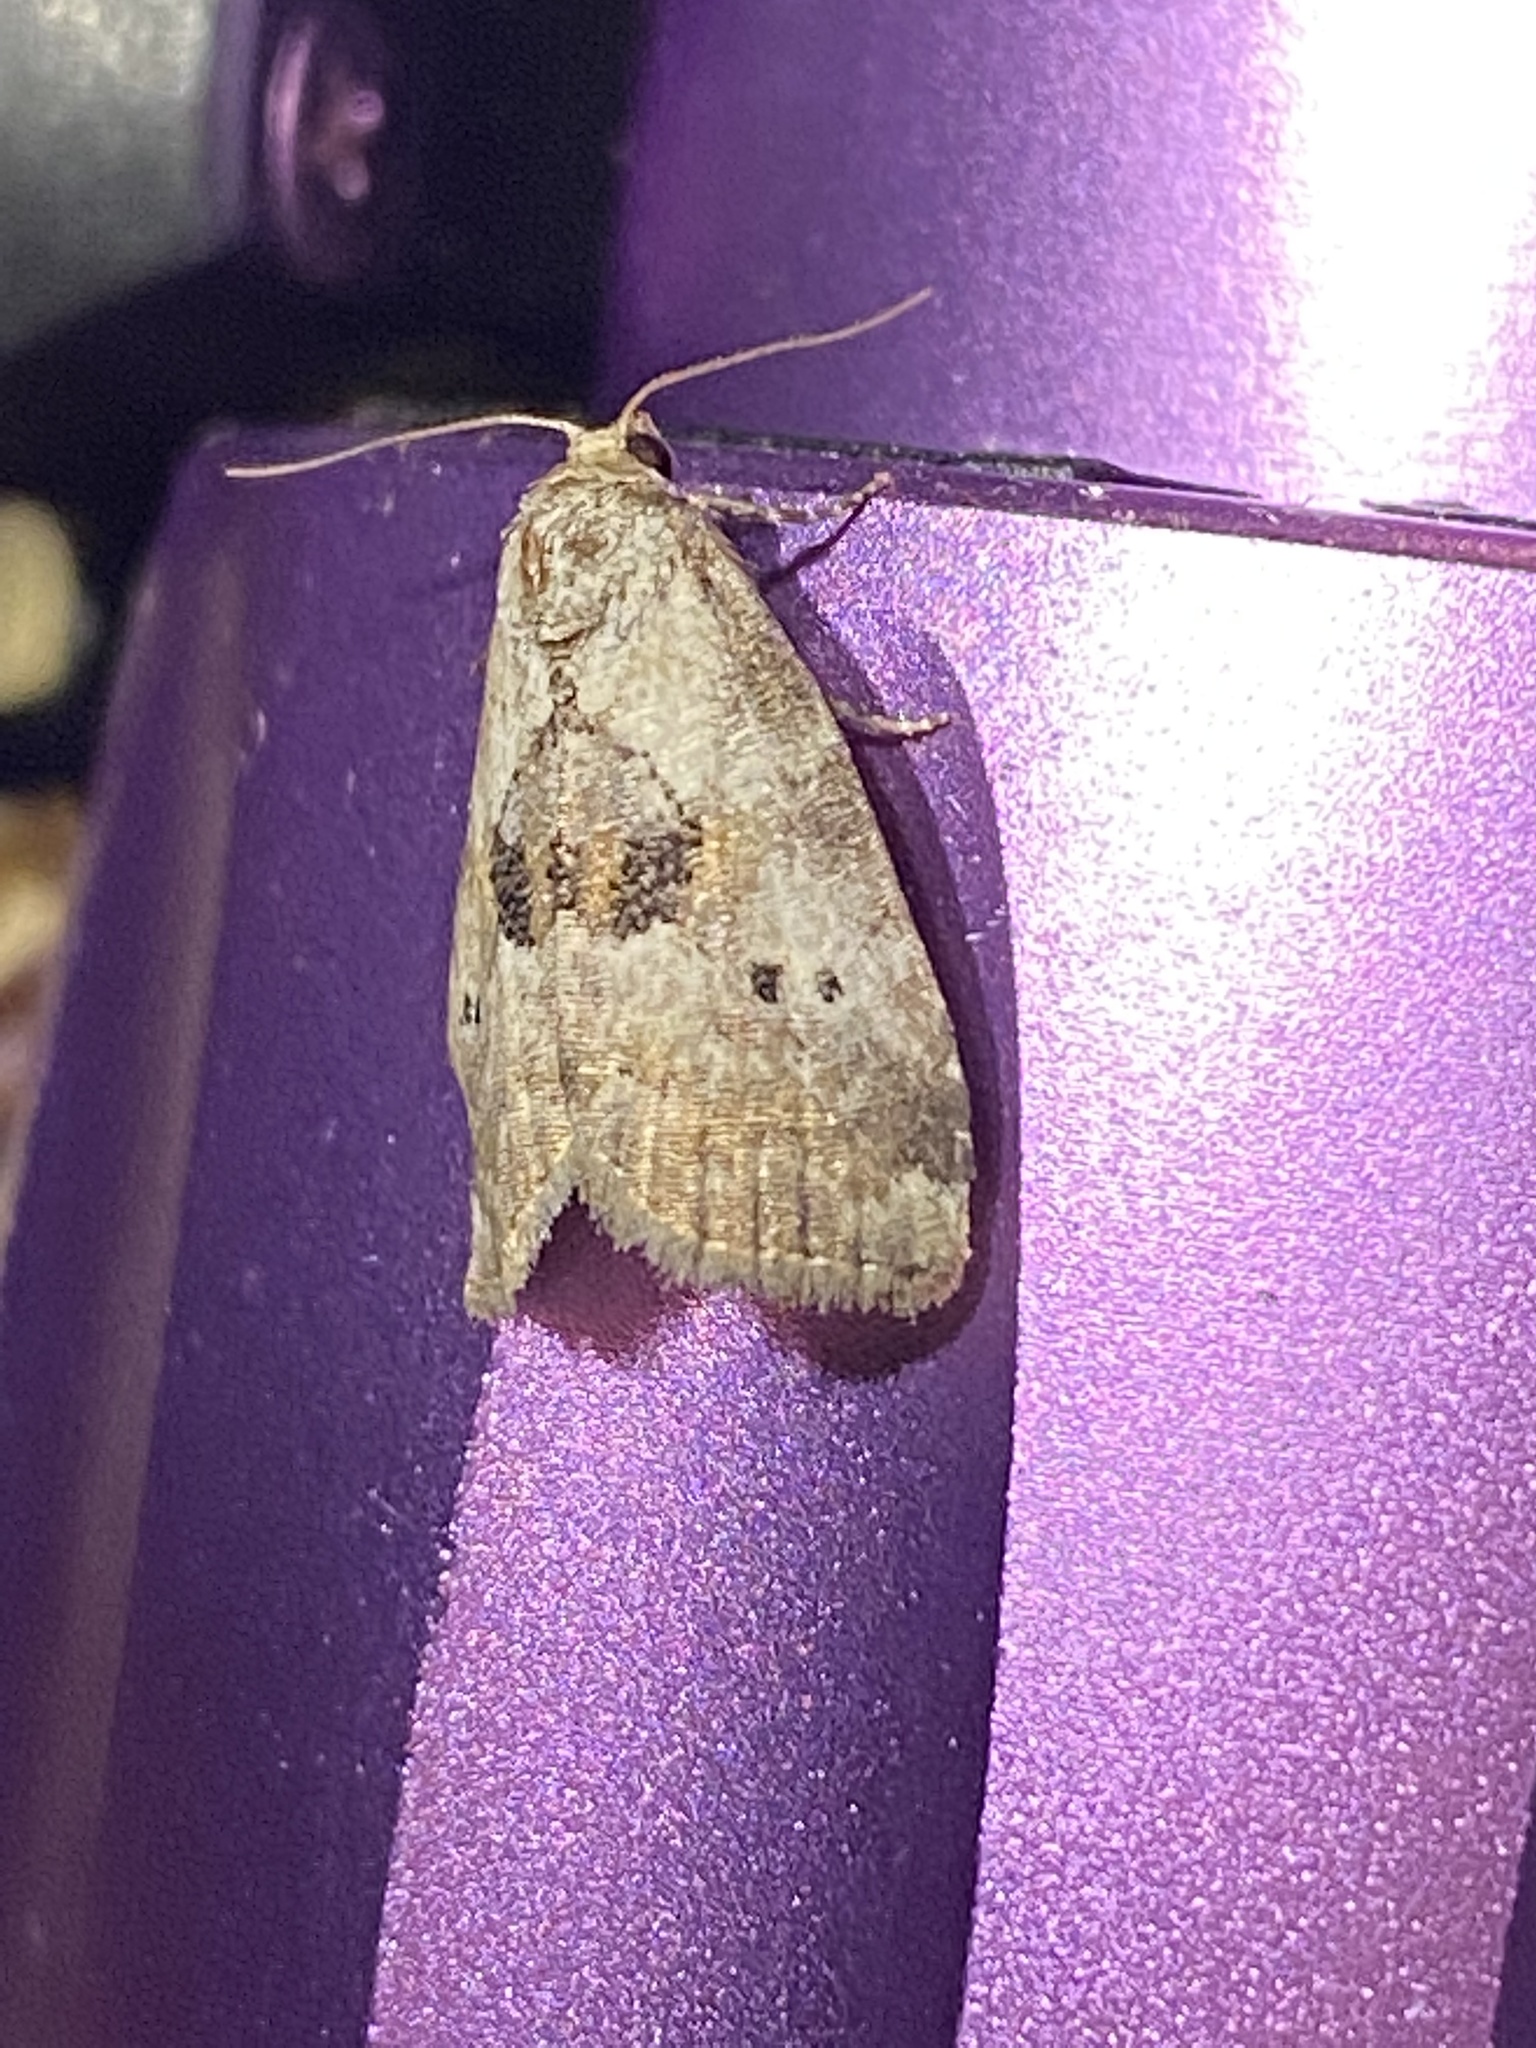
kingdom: Animalia
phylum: Arthropoda
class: Insecta
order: Lepidoptera
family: Erebidae
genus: Hyperstrotia
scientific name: Hyperstrotia secta
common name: Black-patched graylet
